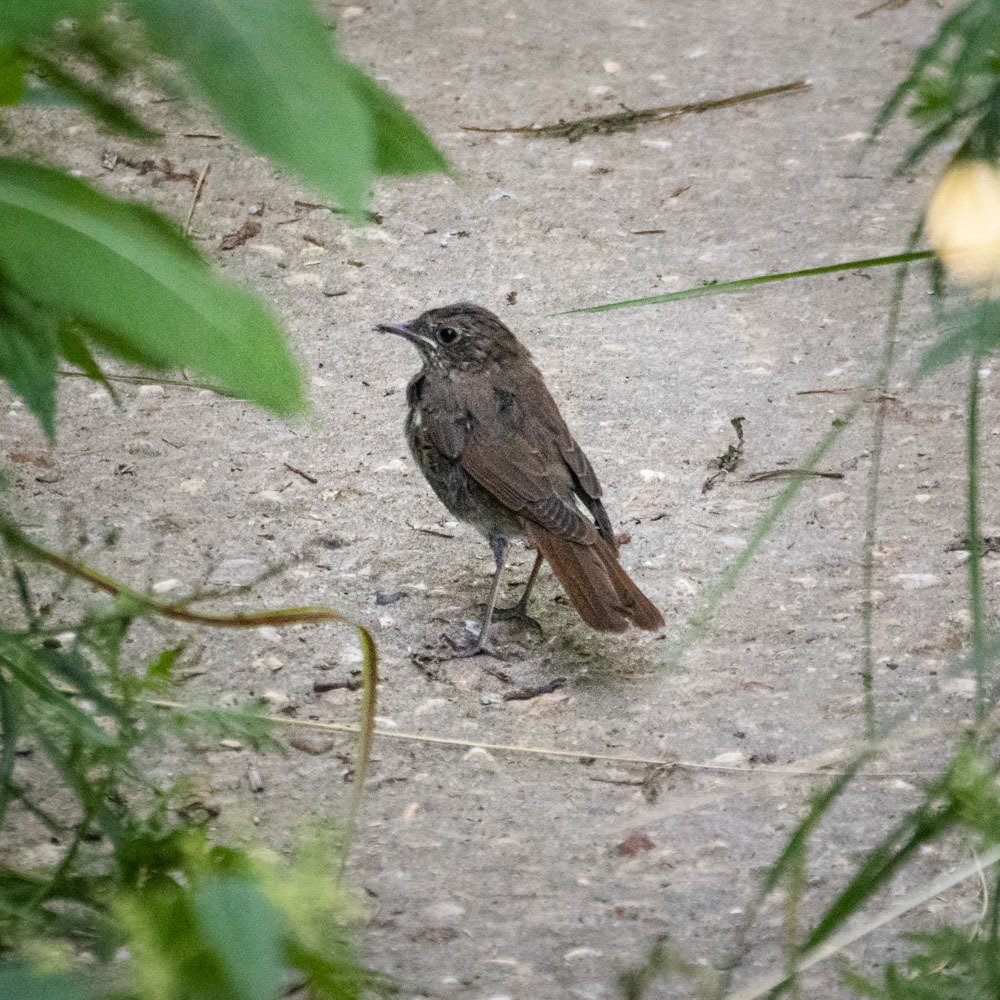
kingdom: Animalia
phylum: Chordata
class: Aves
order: Passeriformes
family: Muscicapidae
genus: Luscinia
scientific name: Luscinia luscinia
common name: Thrush nightingale
